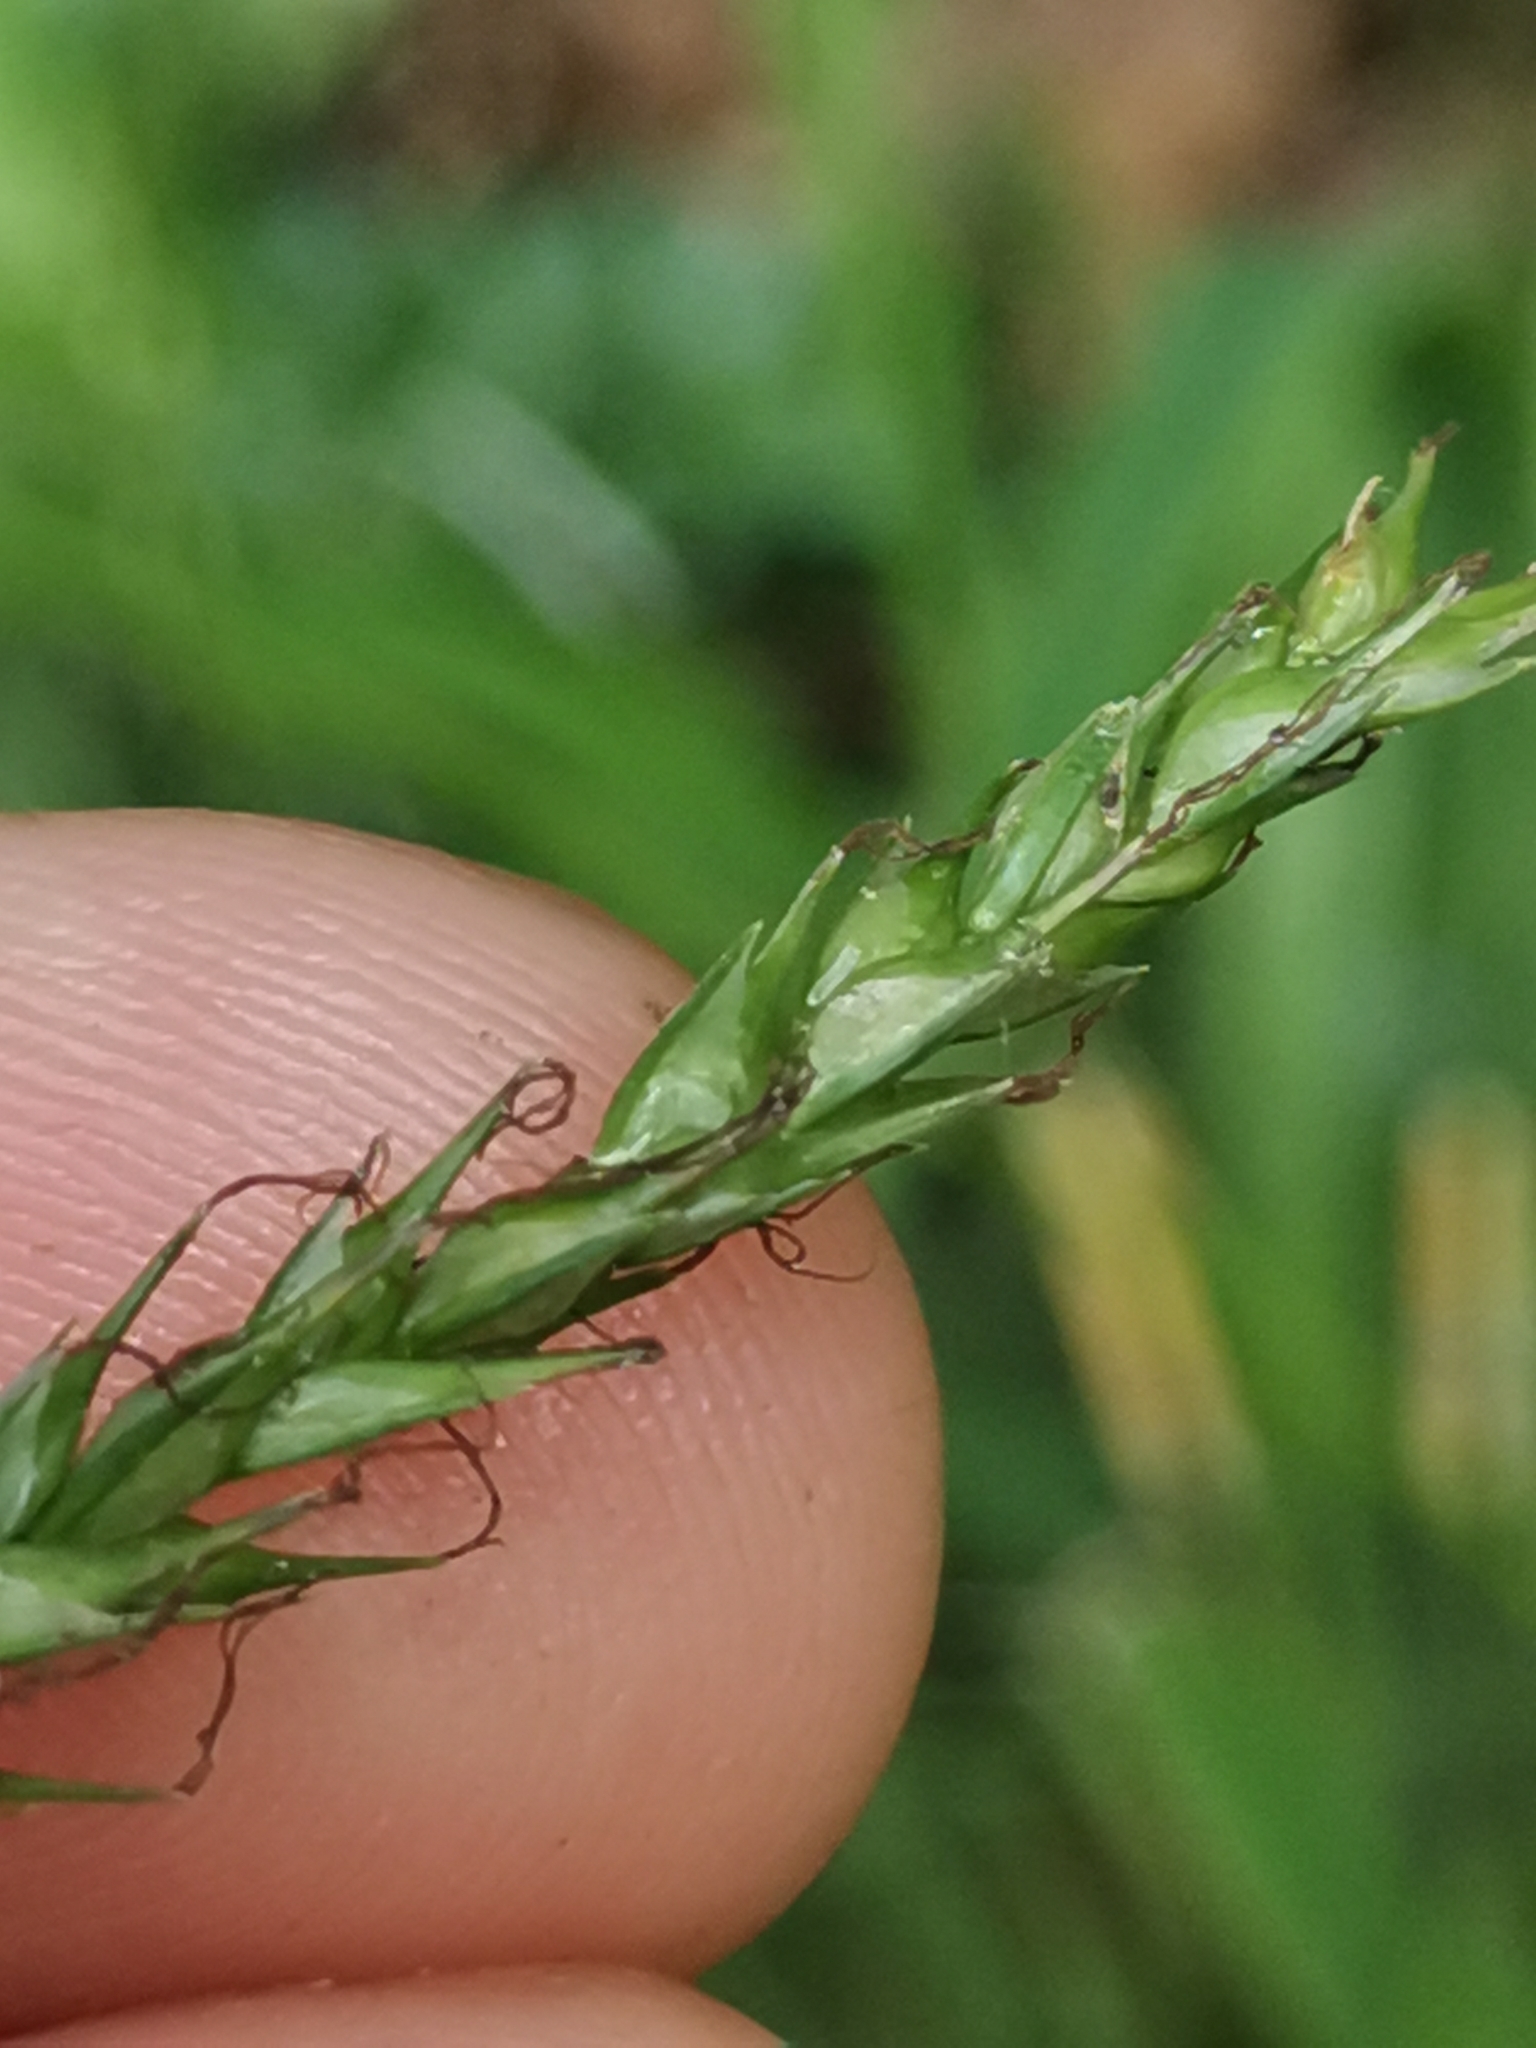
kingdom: Plantae
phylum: Tracheophyta
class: Liliopsida
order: Poales
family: Cyperaceae
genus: Carex
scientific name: Carex sylvatica
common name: Wood-sedge
